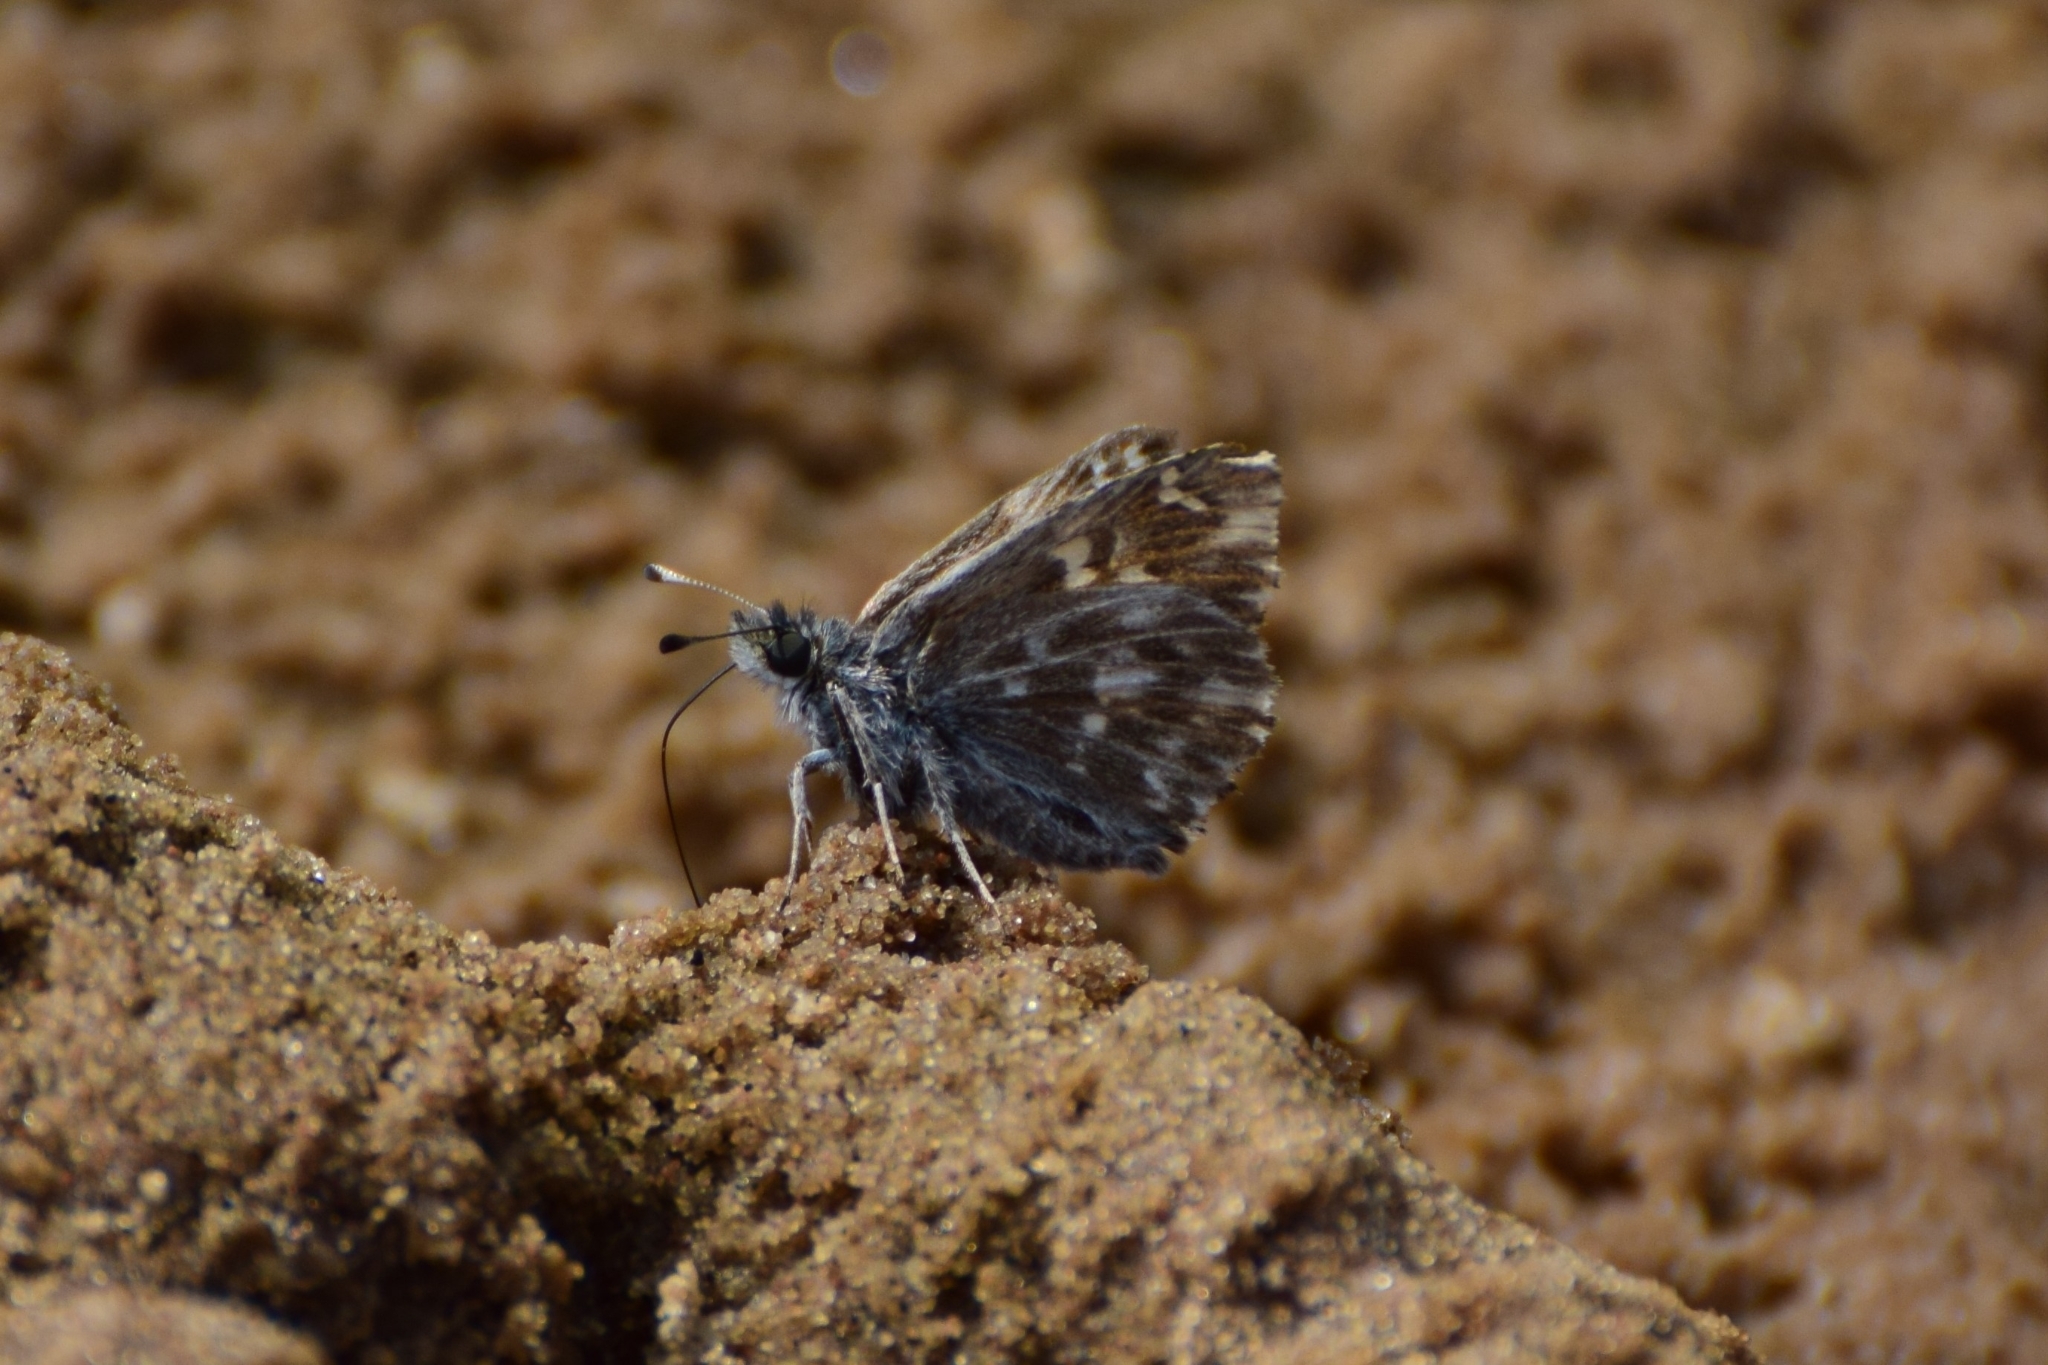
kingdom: Animalia
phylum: Arthropoda
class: Insecta
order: Lepidoptera
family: Hesperiidae
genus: Carcharodus
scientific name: Carcharodus floccifera
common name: Tufted marbled skipper
